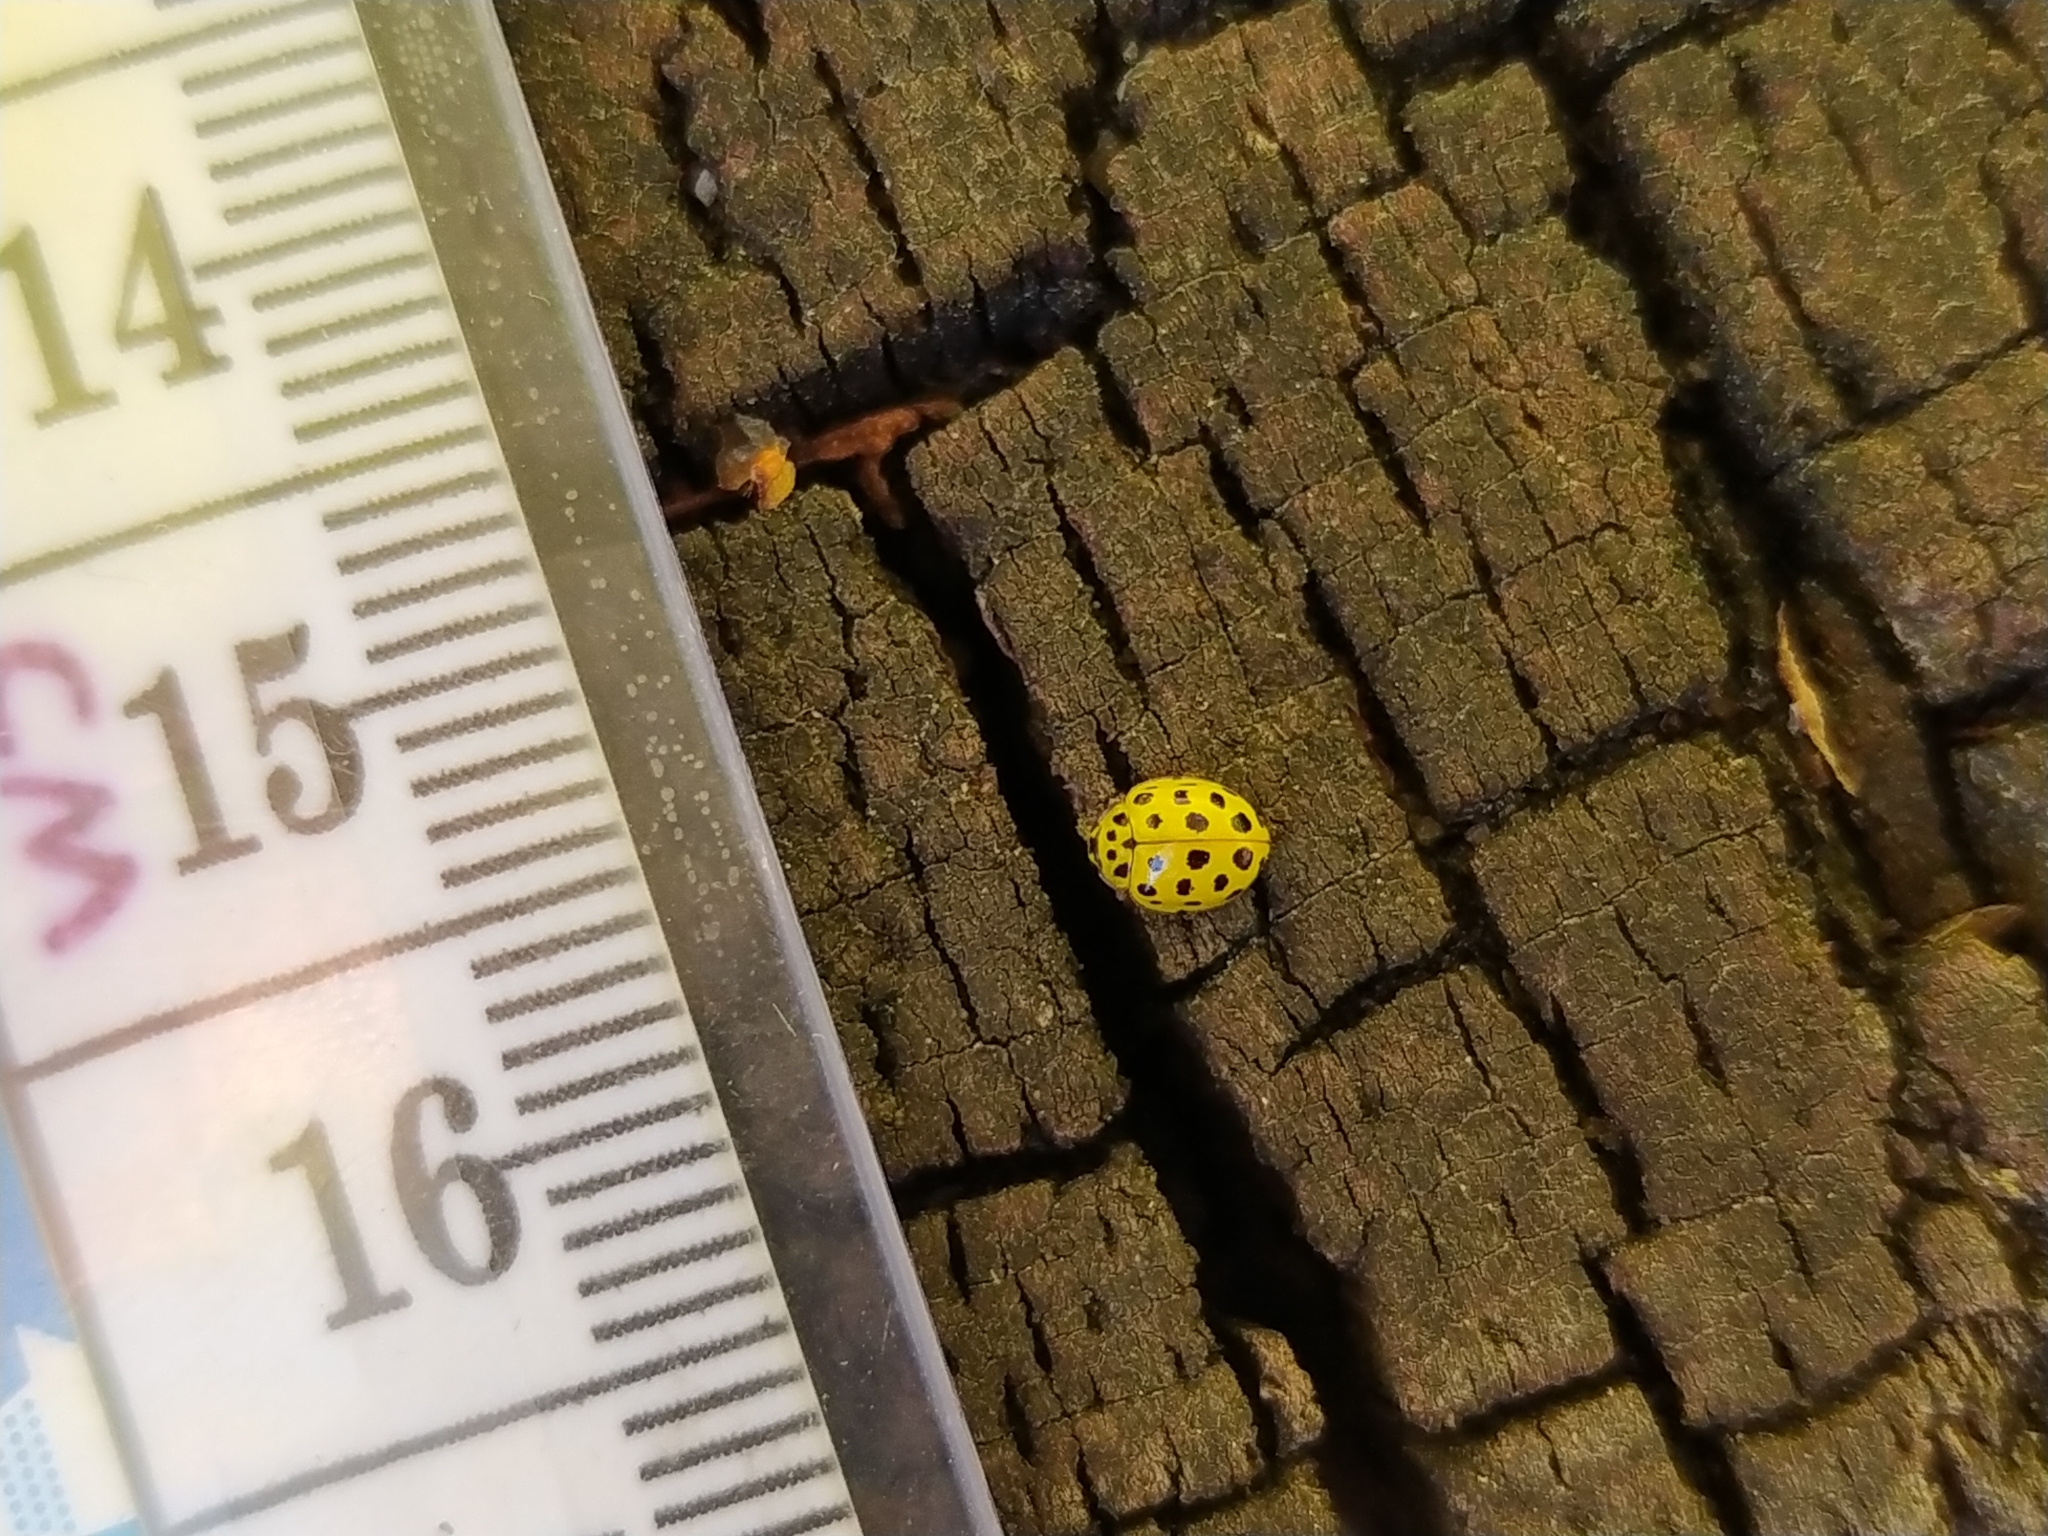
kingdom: Animalia
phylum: Arthropoda
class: Insecta
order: Coleoptera
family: Coccinellidae
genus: Psyllobora
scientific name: Psyllobora vigintiduopunctata
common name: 22-spot ladybird
